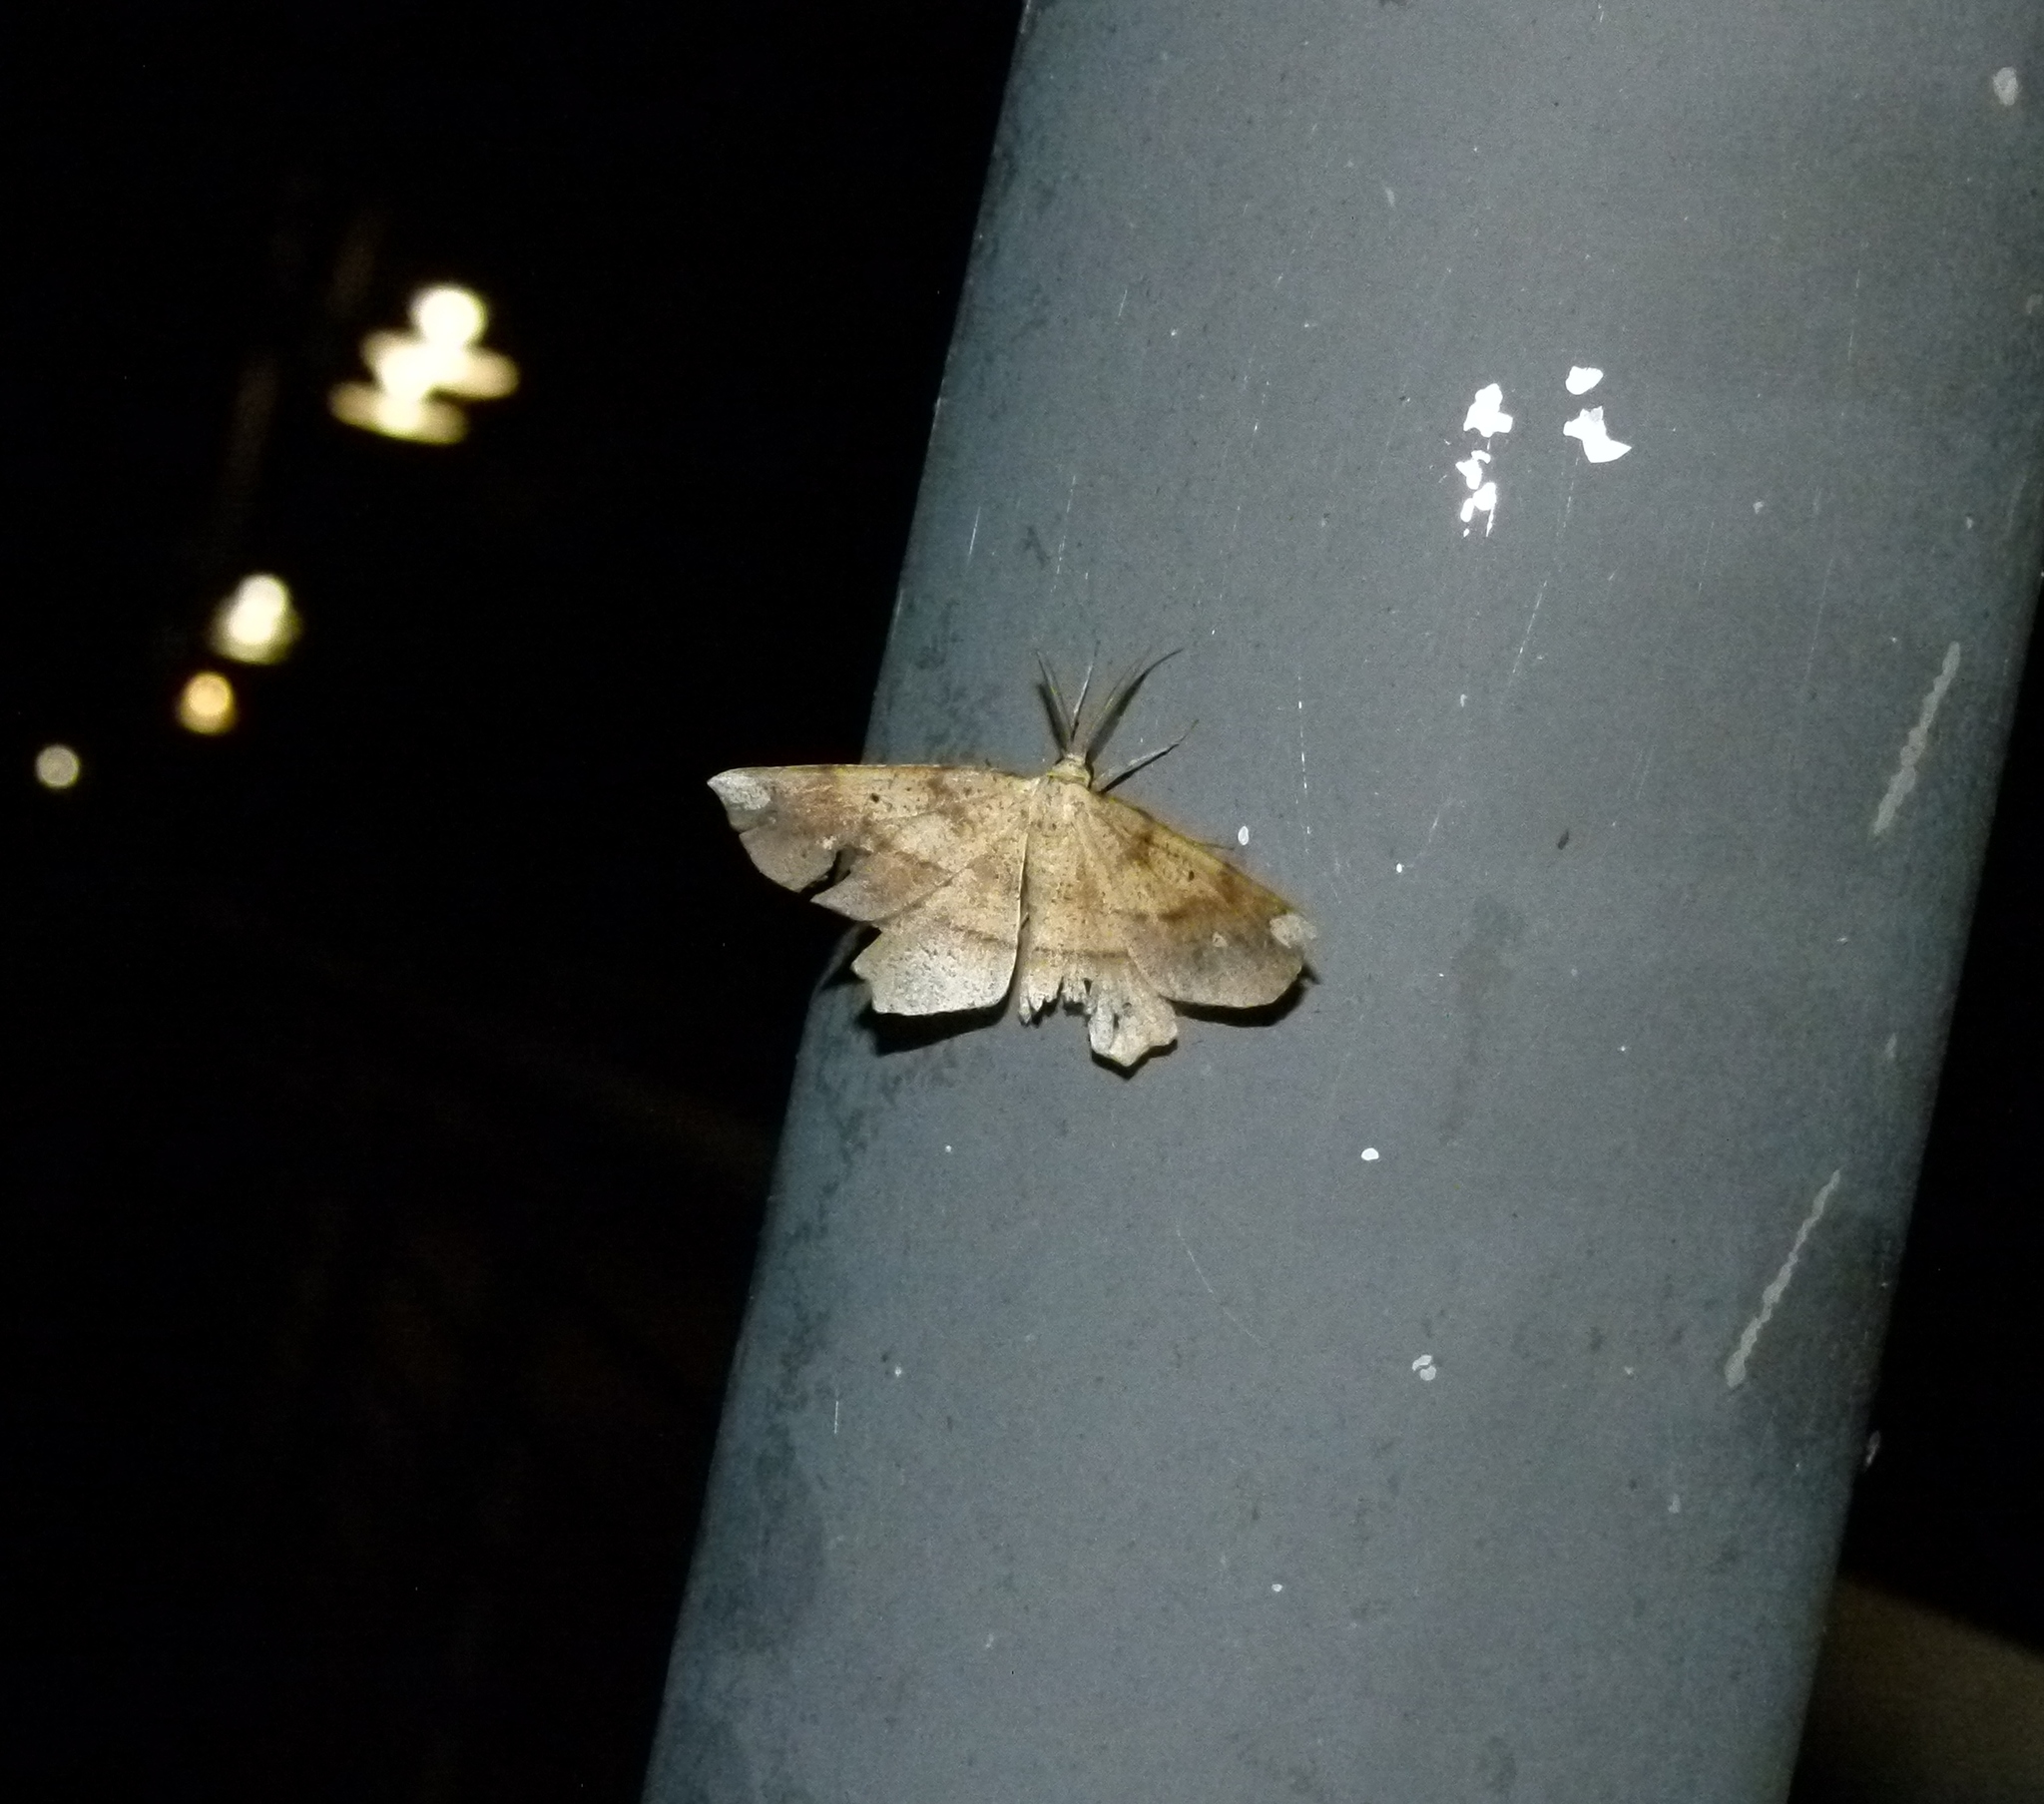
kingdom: Animalia
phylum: Arthropoda
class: Insecta
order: Lepidoptera
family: Geometridae
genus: Euchlaena
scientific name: Euchlaena amoenaria
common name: Deep yellow euchlaena
